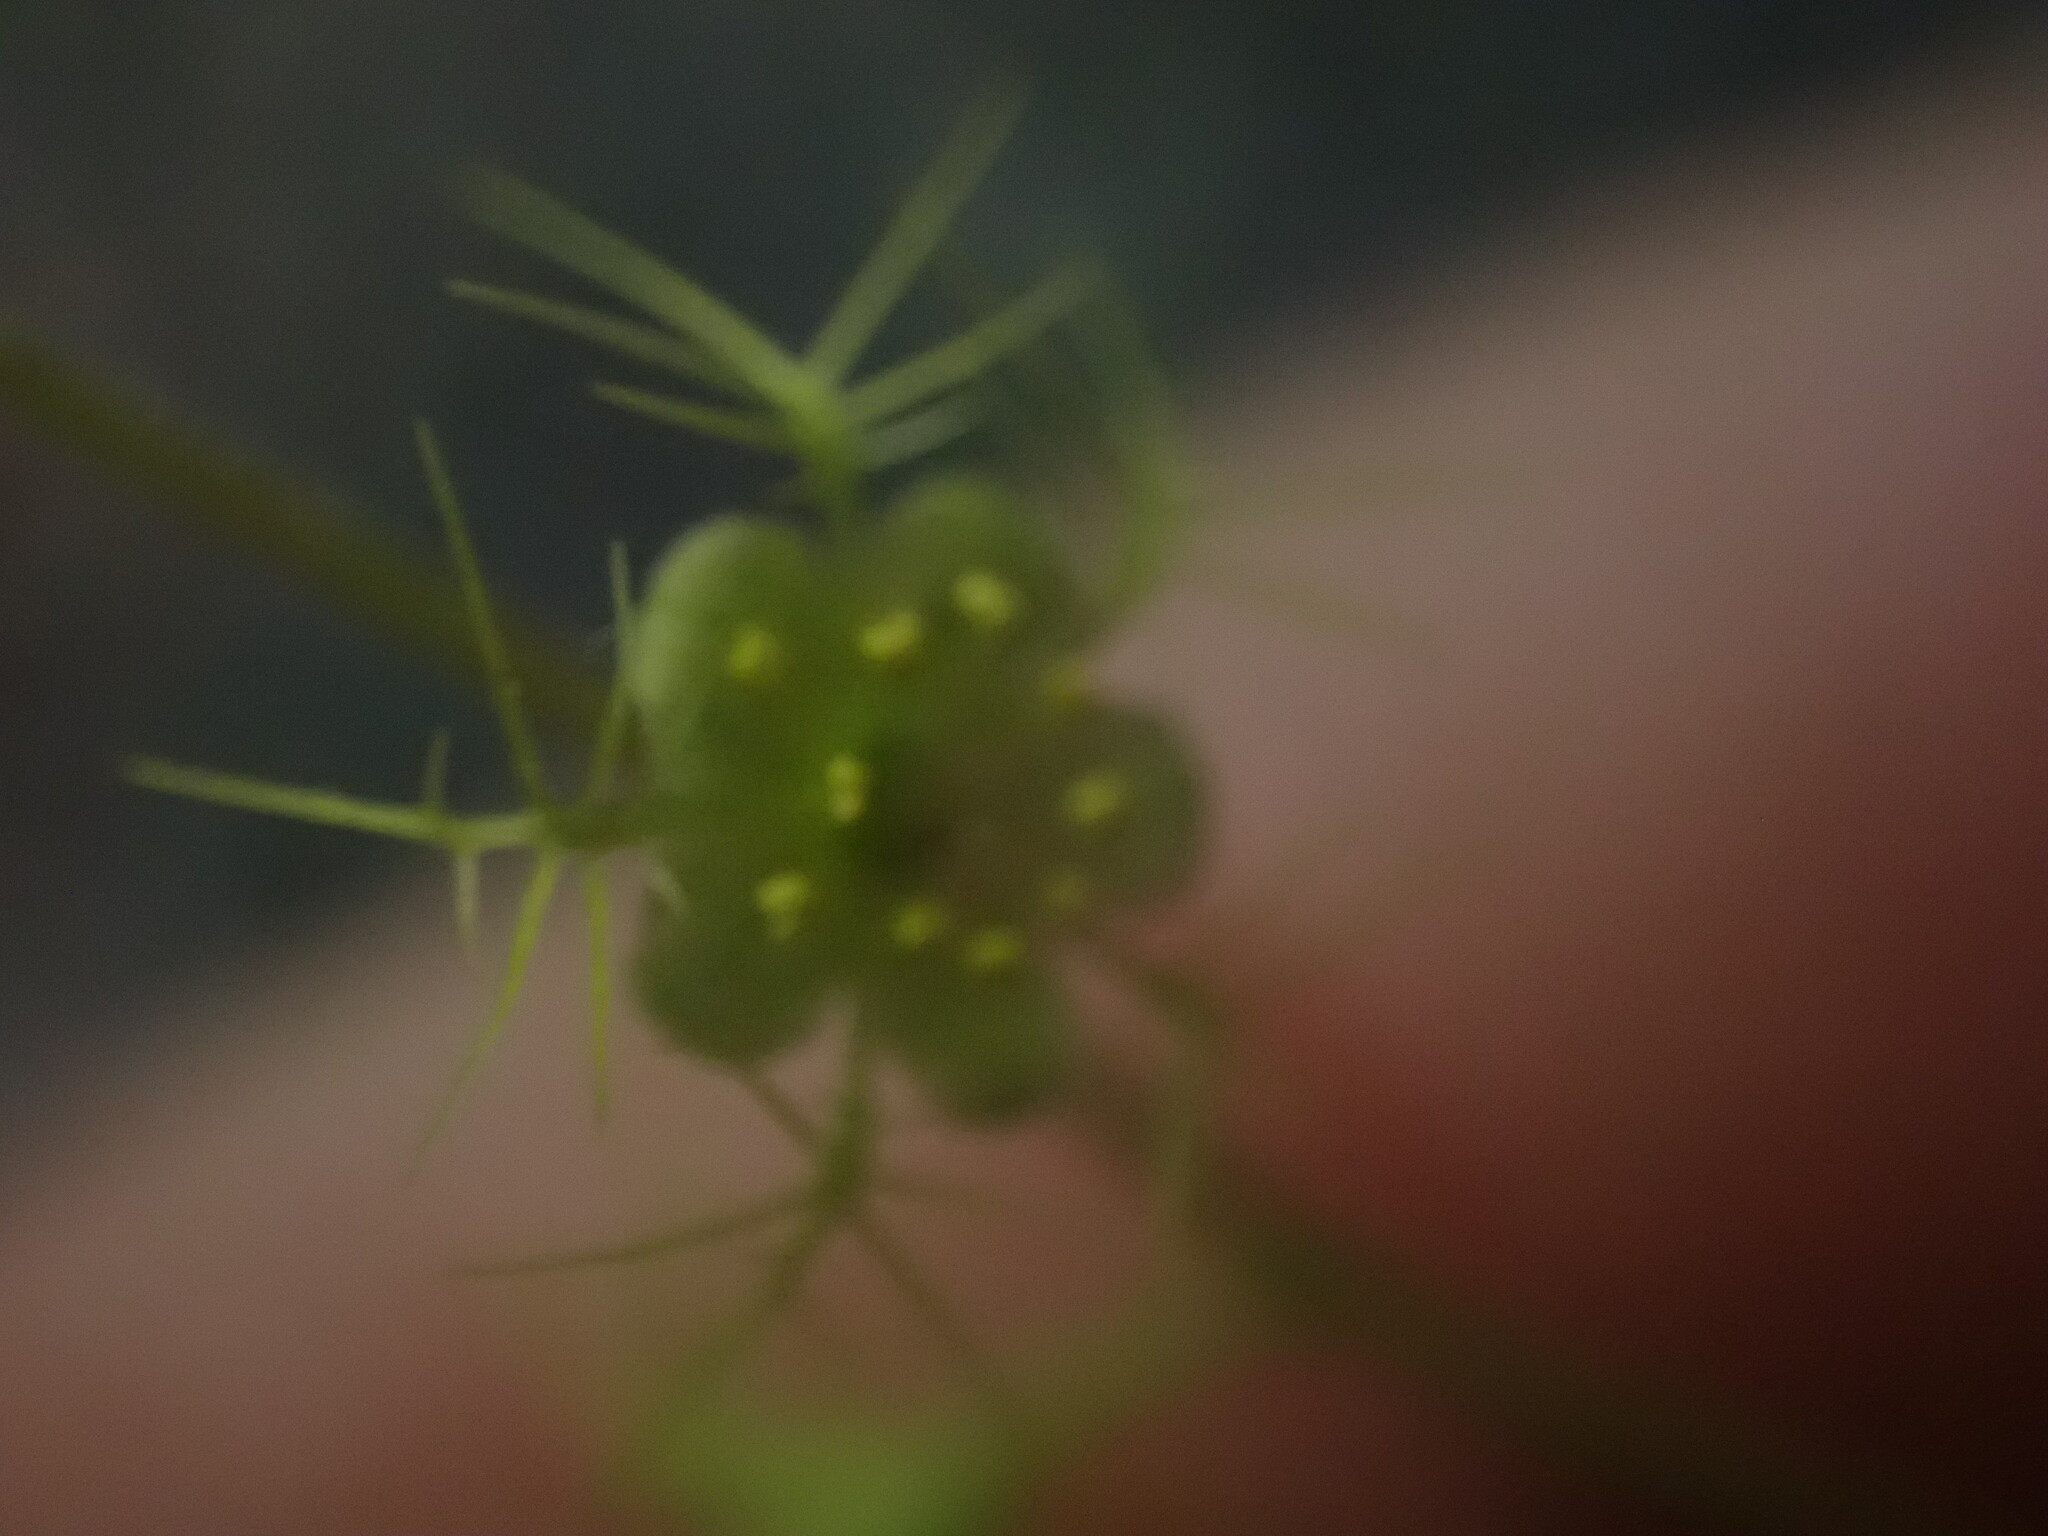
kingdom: Plantae
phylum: Tracheophyta
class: Magnoliopsida
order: Saxifragales
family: Saxifragaceae
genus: Mitella
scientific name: Mitella nuda
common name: Bare-stemmed bishop's-cap
